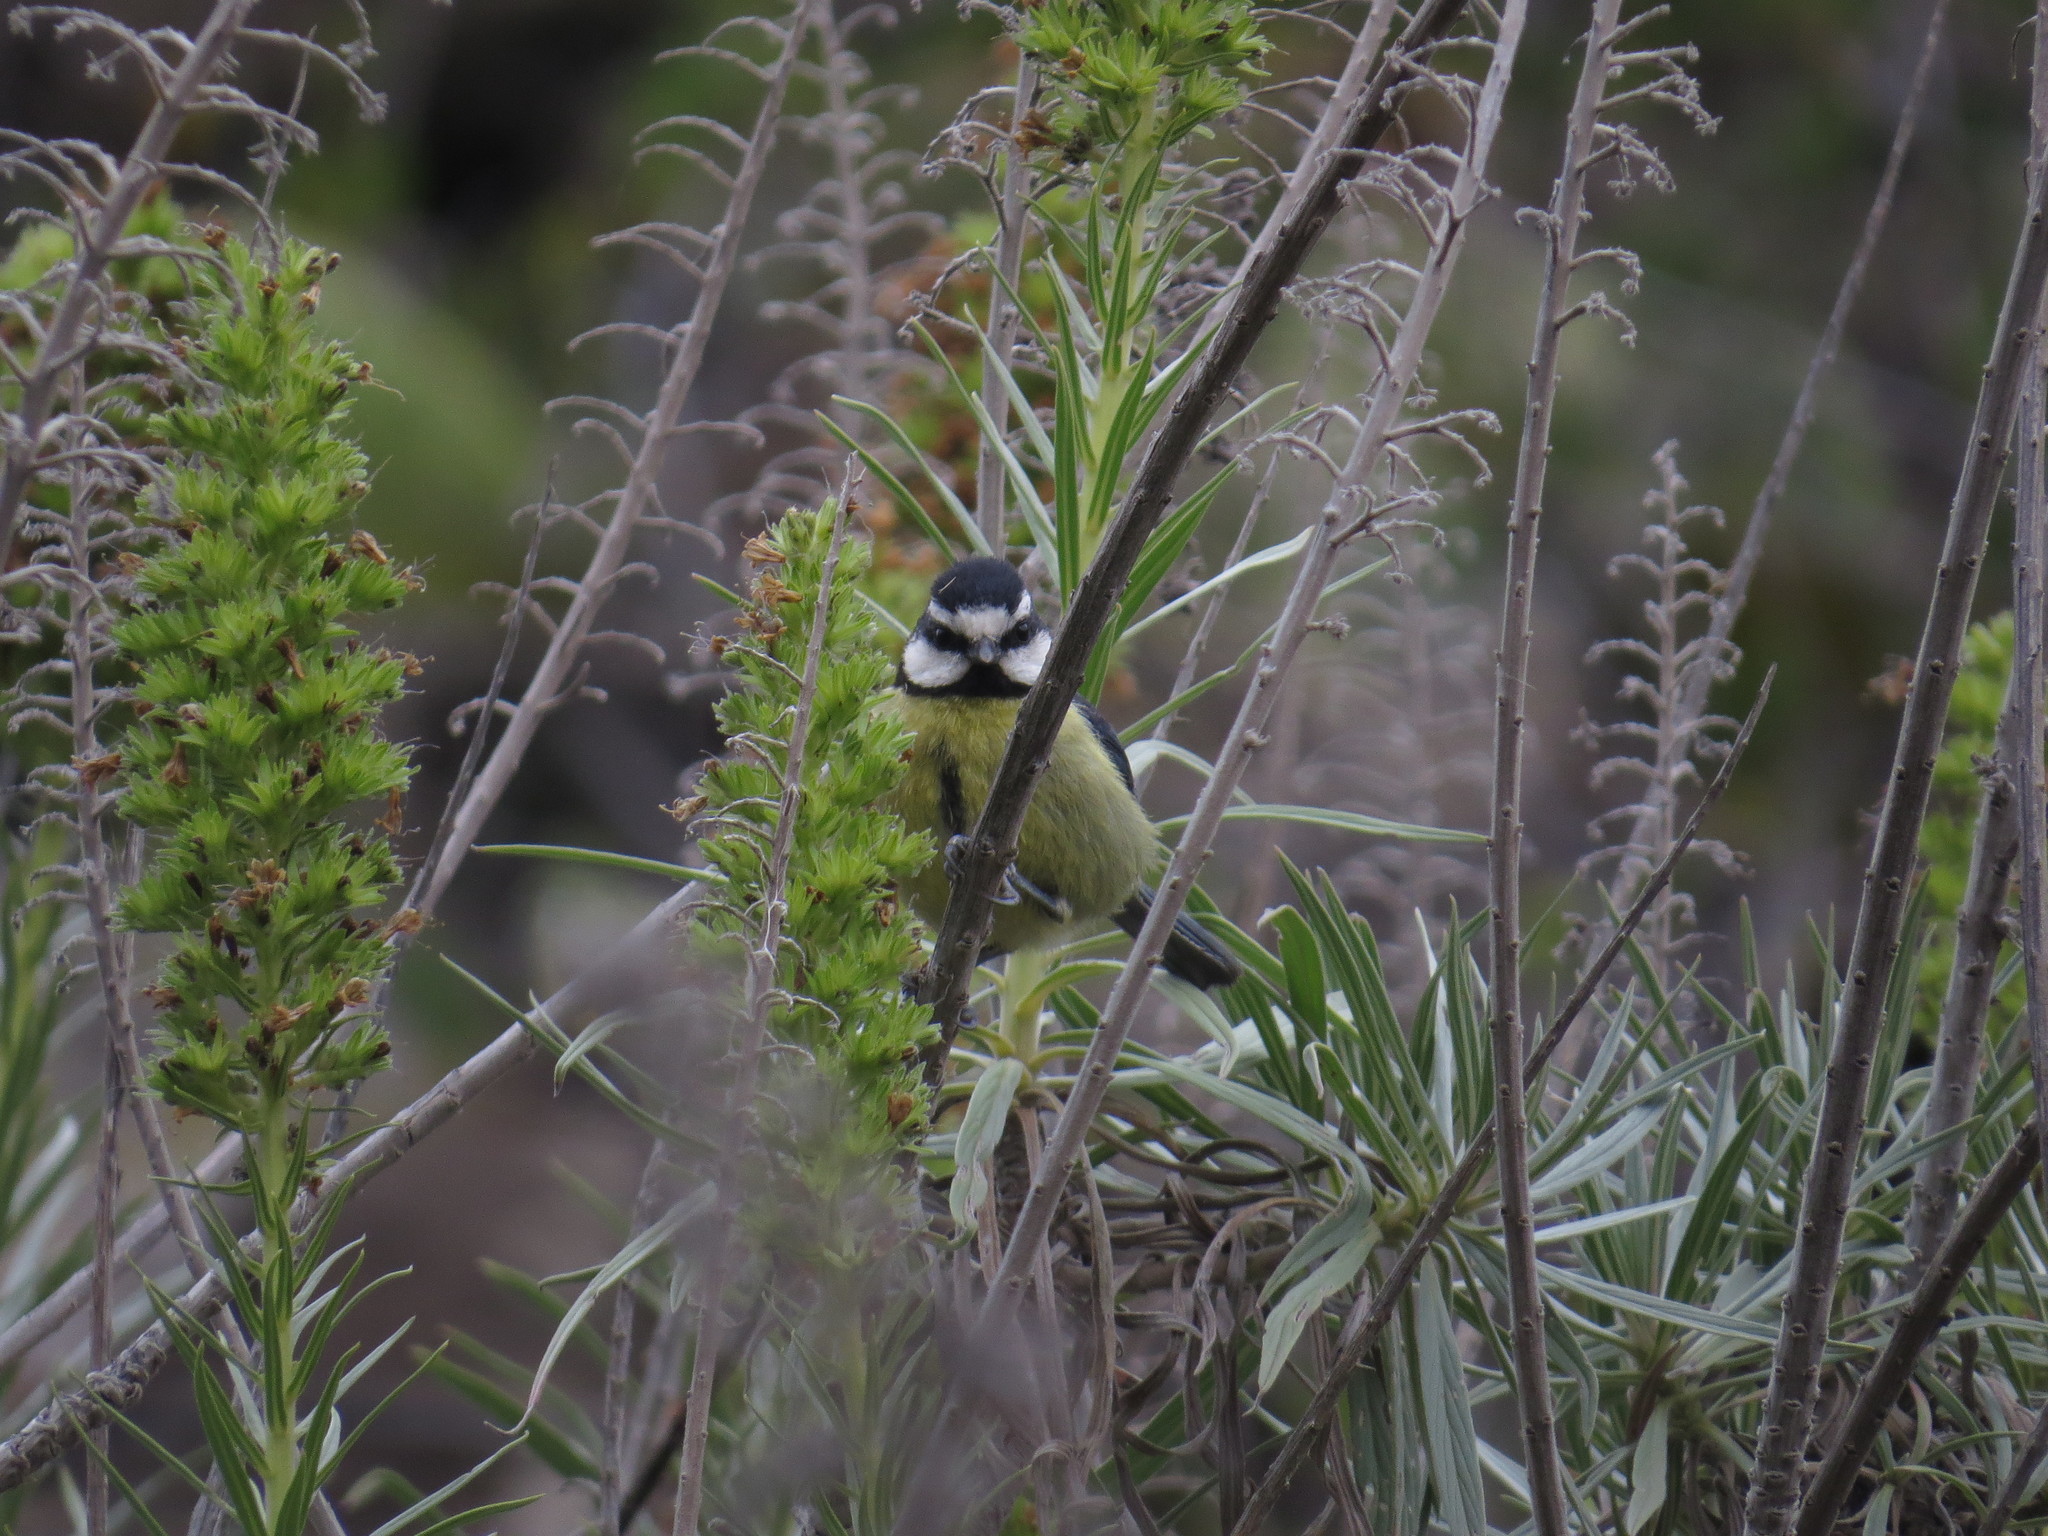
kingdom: Animalia
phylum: Chordata
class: Aves
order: Passeriformes
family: Paridae
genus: Cyanistes
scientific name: Cyanistes teneriffae
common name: African blue tit
